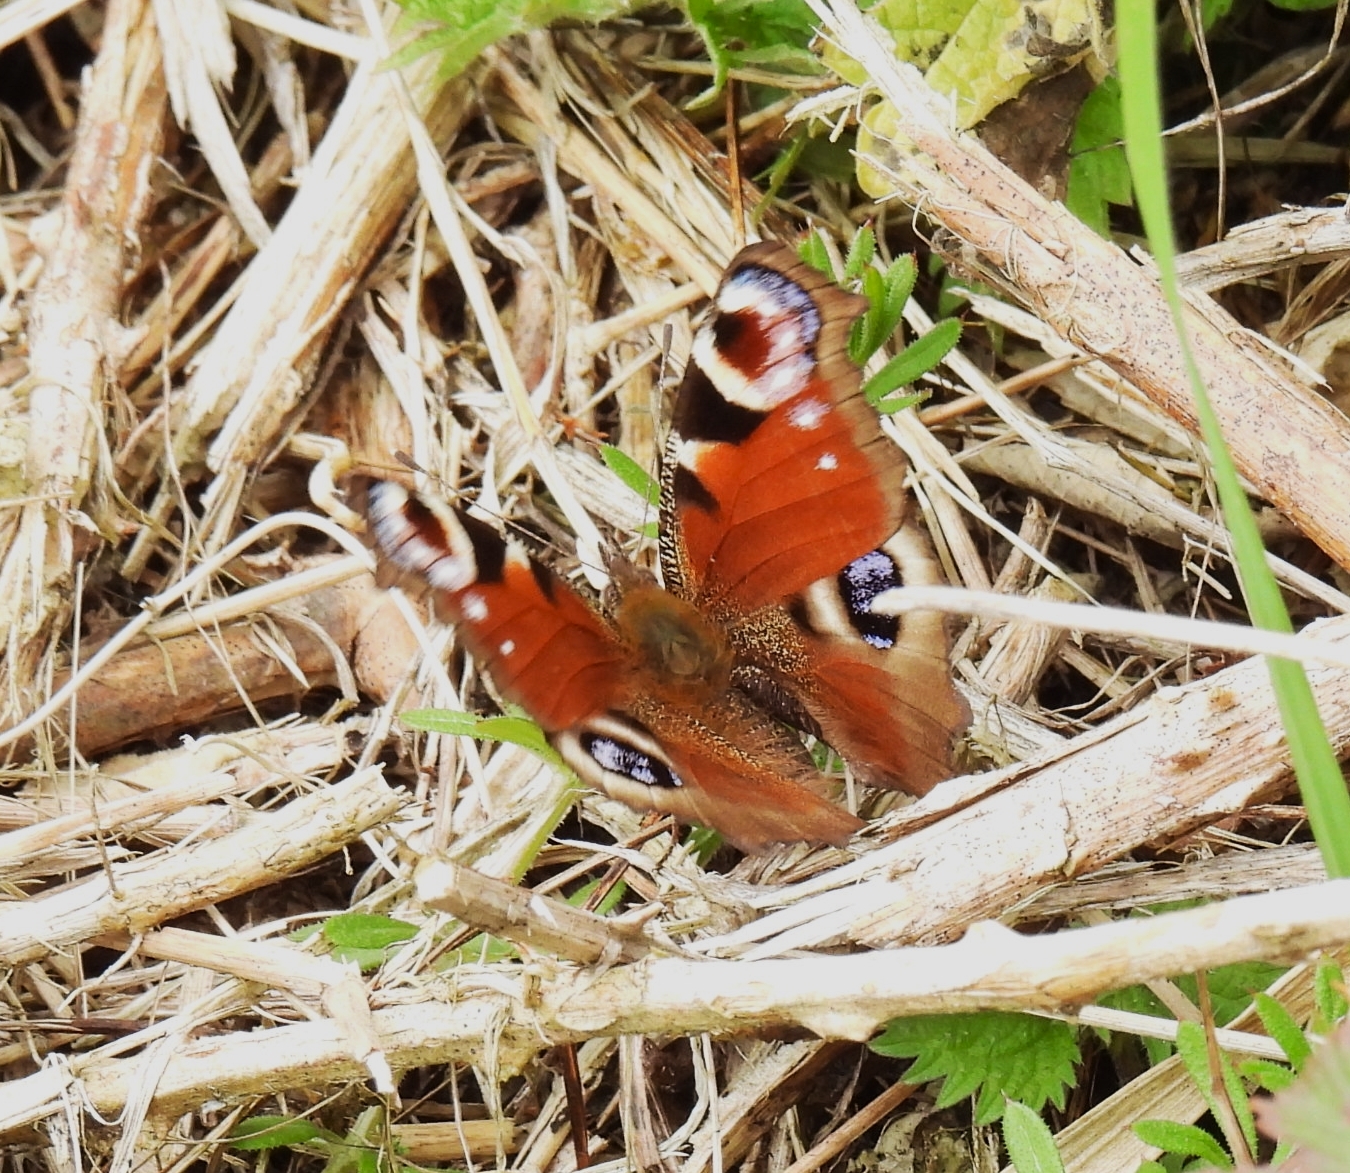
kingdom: Animalia
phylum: Arthropoda
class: Insecta
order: Lepidoptera
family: Nymphalidae
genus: Aglais
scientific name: Aglais io
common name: Peacock
